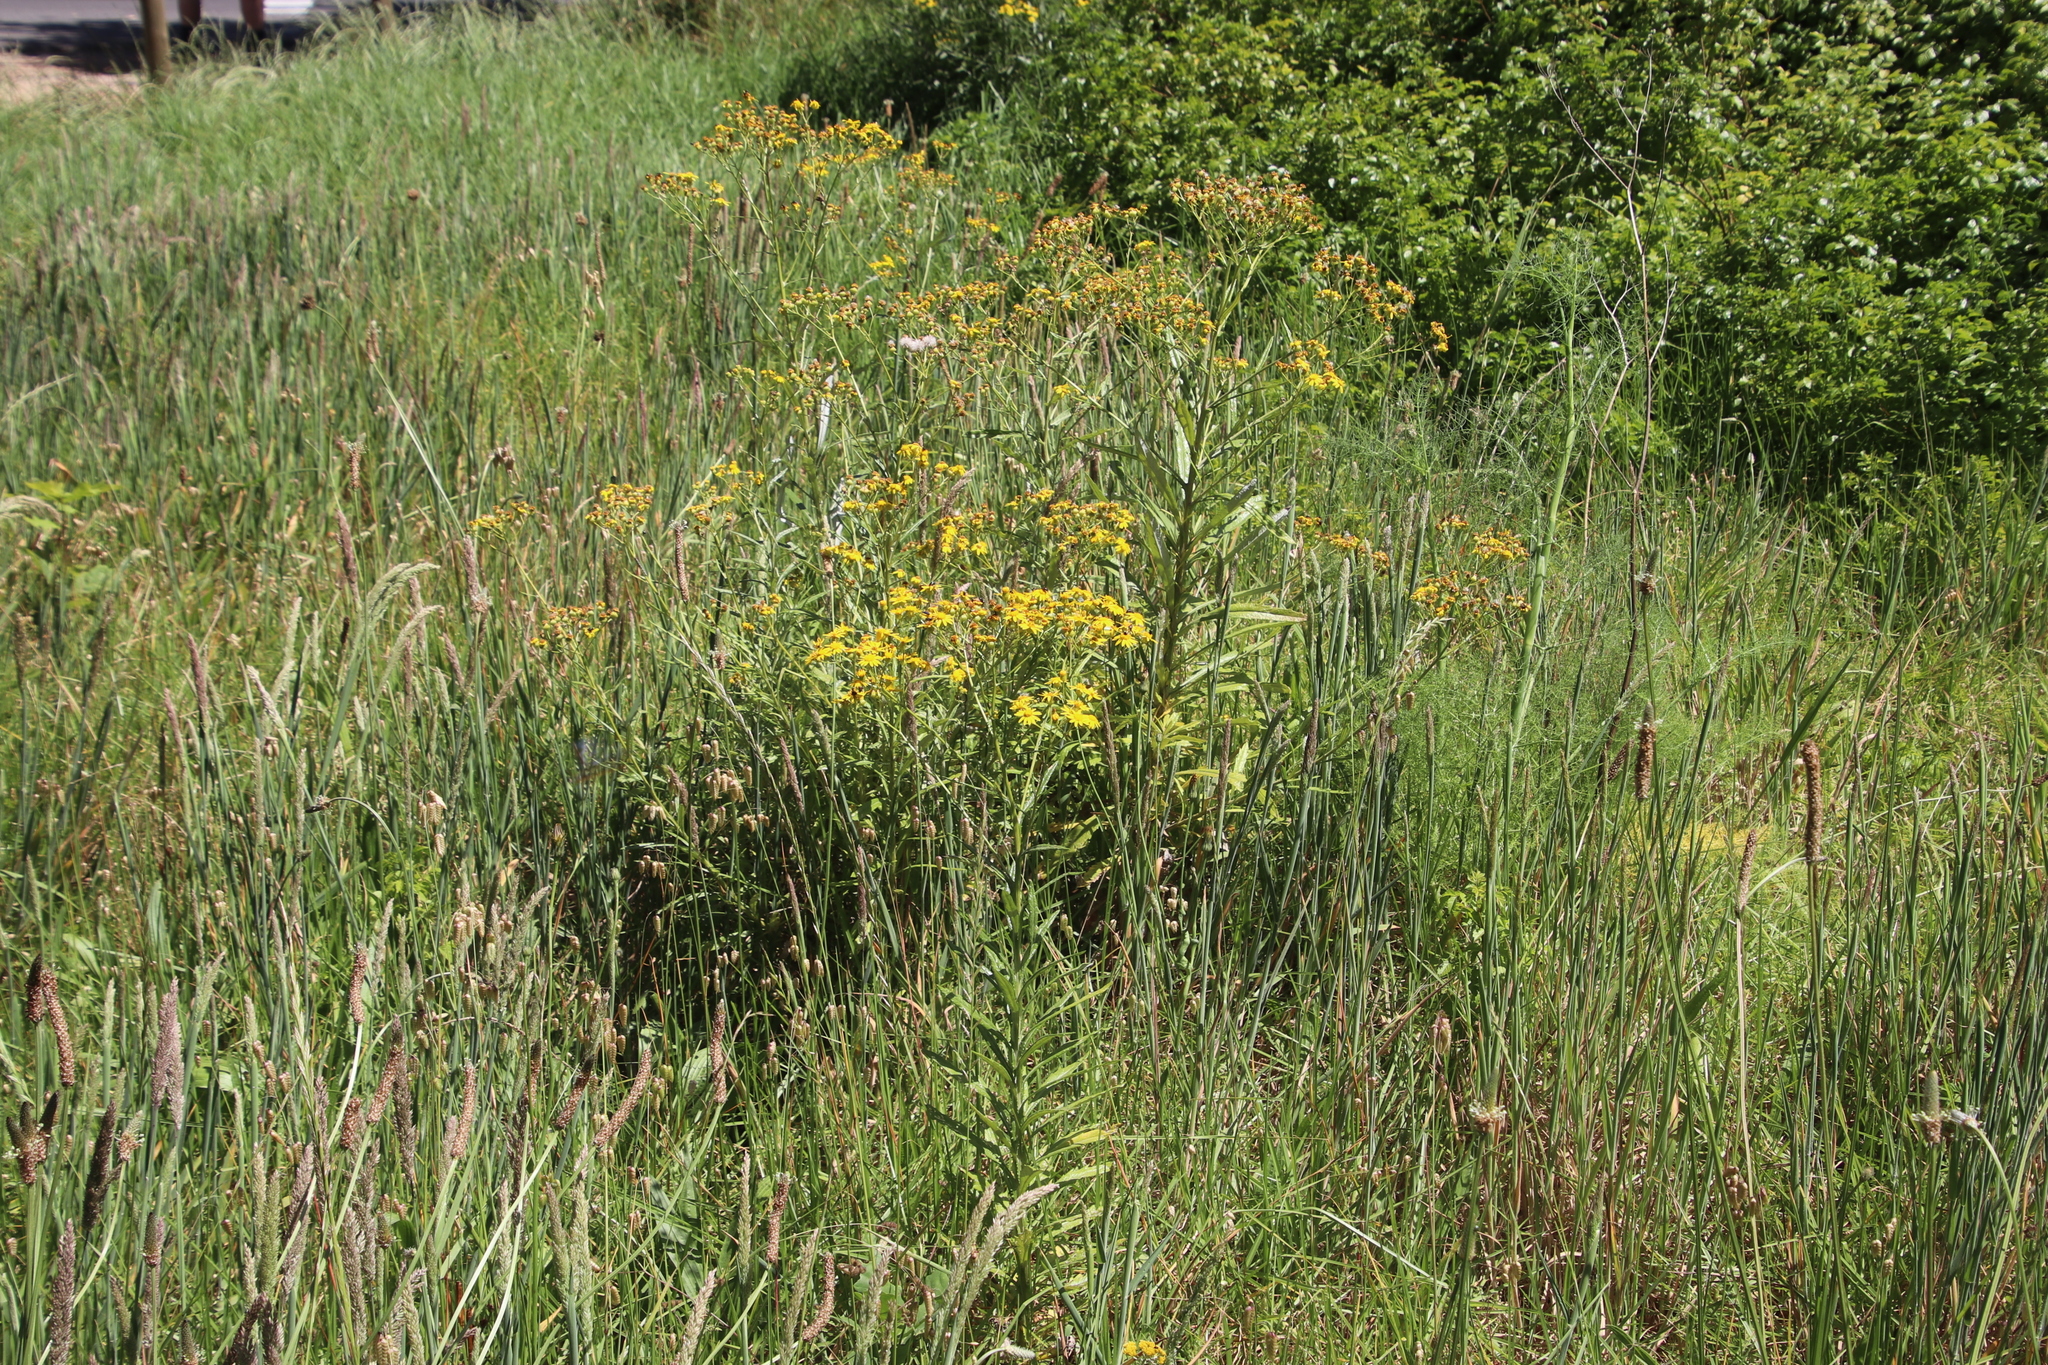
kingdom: Plantae
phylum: Tracheophyta
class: Magnoliopsida
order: Asterales
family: Asteraceae
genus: Senecio
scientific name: Senecio pterophorus
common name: Shoddy ragwort
